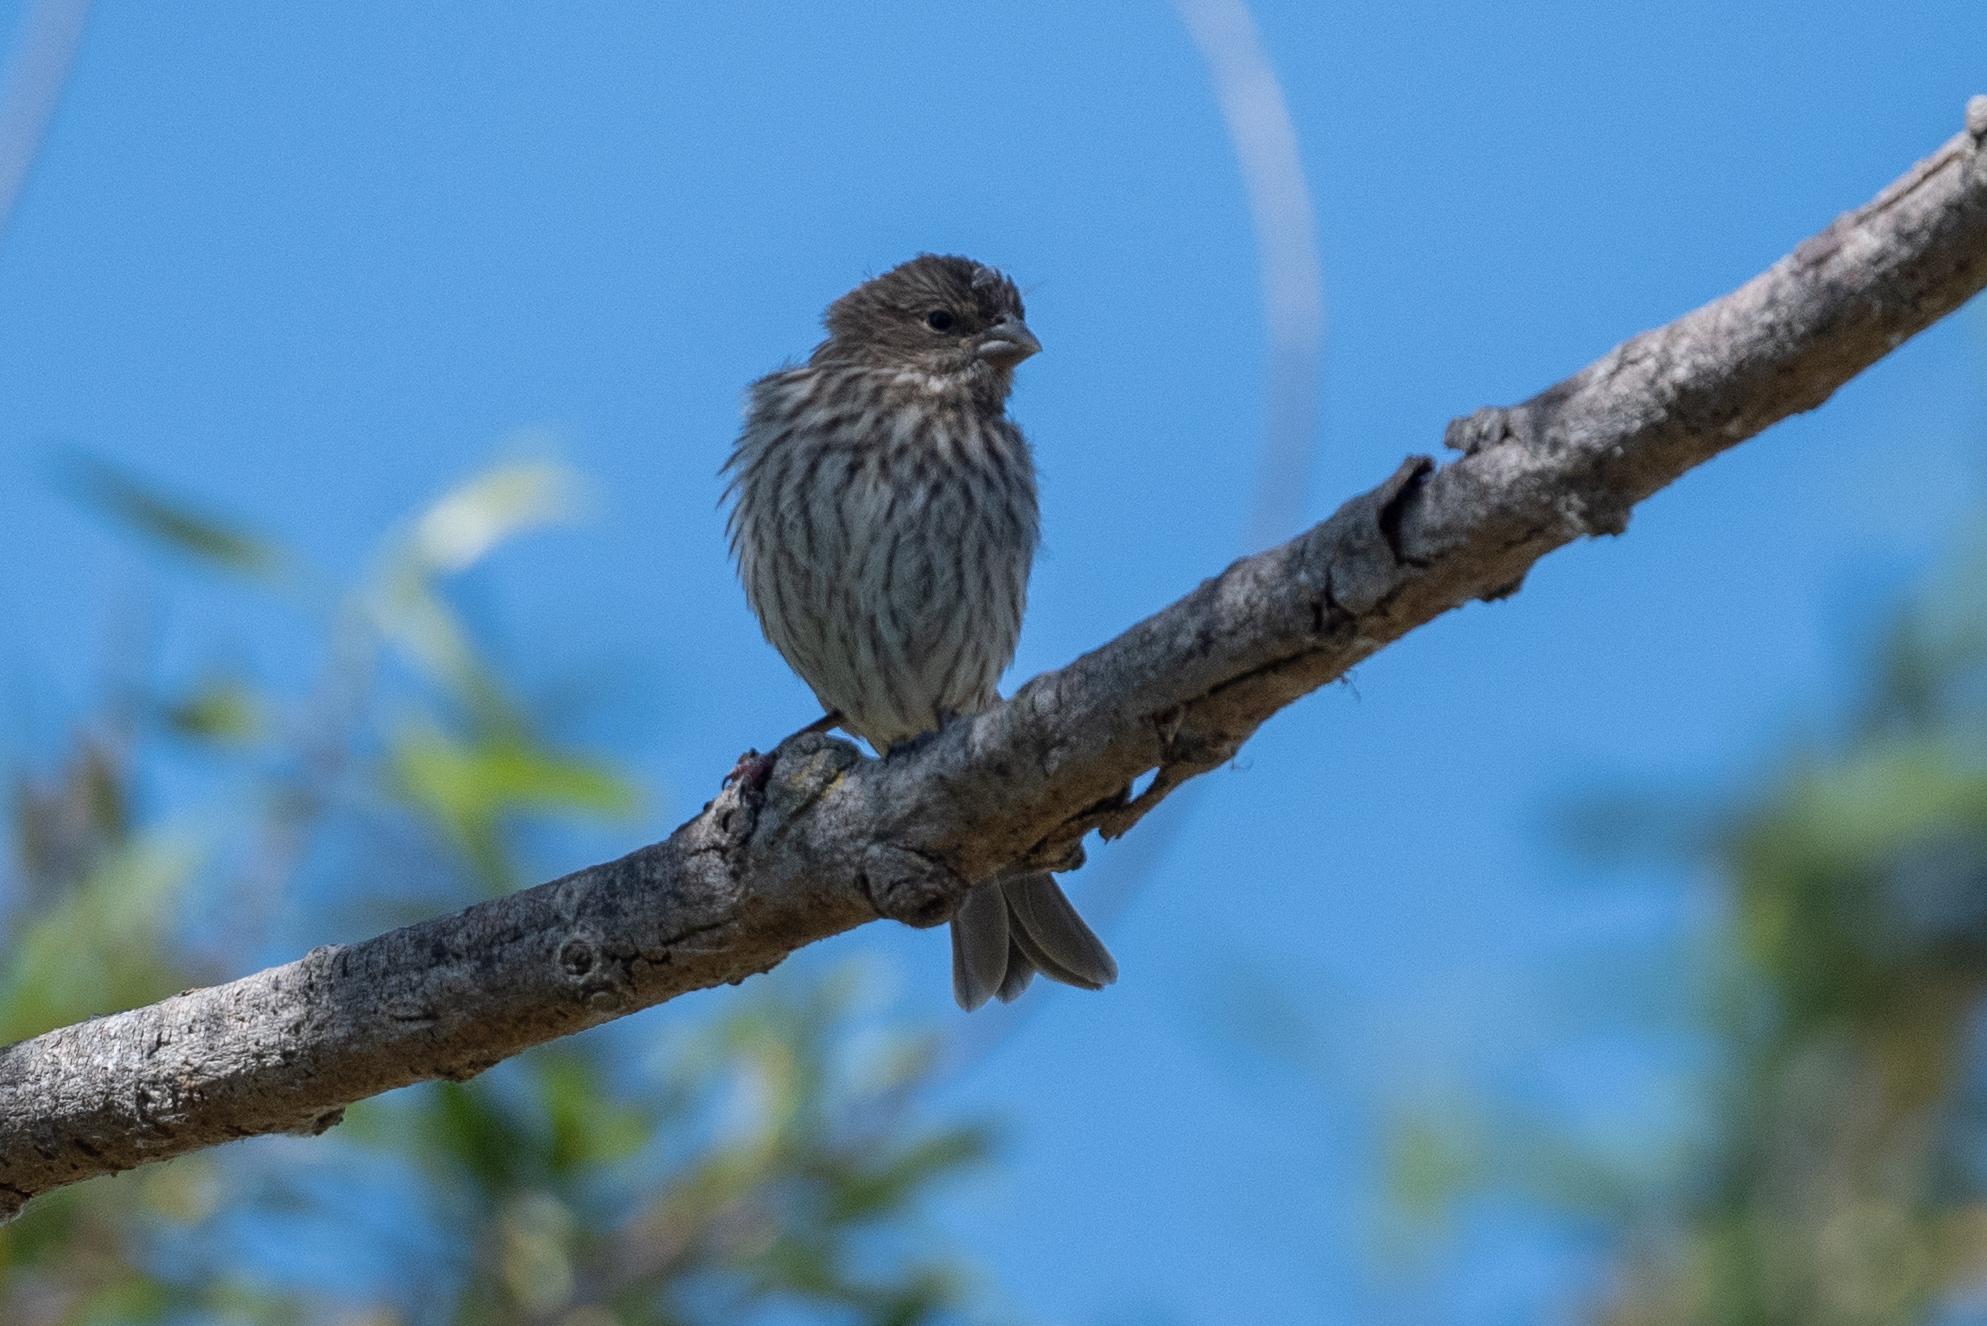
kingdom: Animalia
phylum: Chordata
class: Aves
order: Passeriformes
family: Fringillidae
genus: Haemorhous
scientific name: Haemorhous mexicanus
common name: House finch
